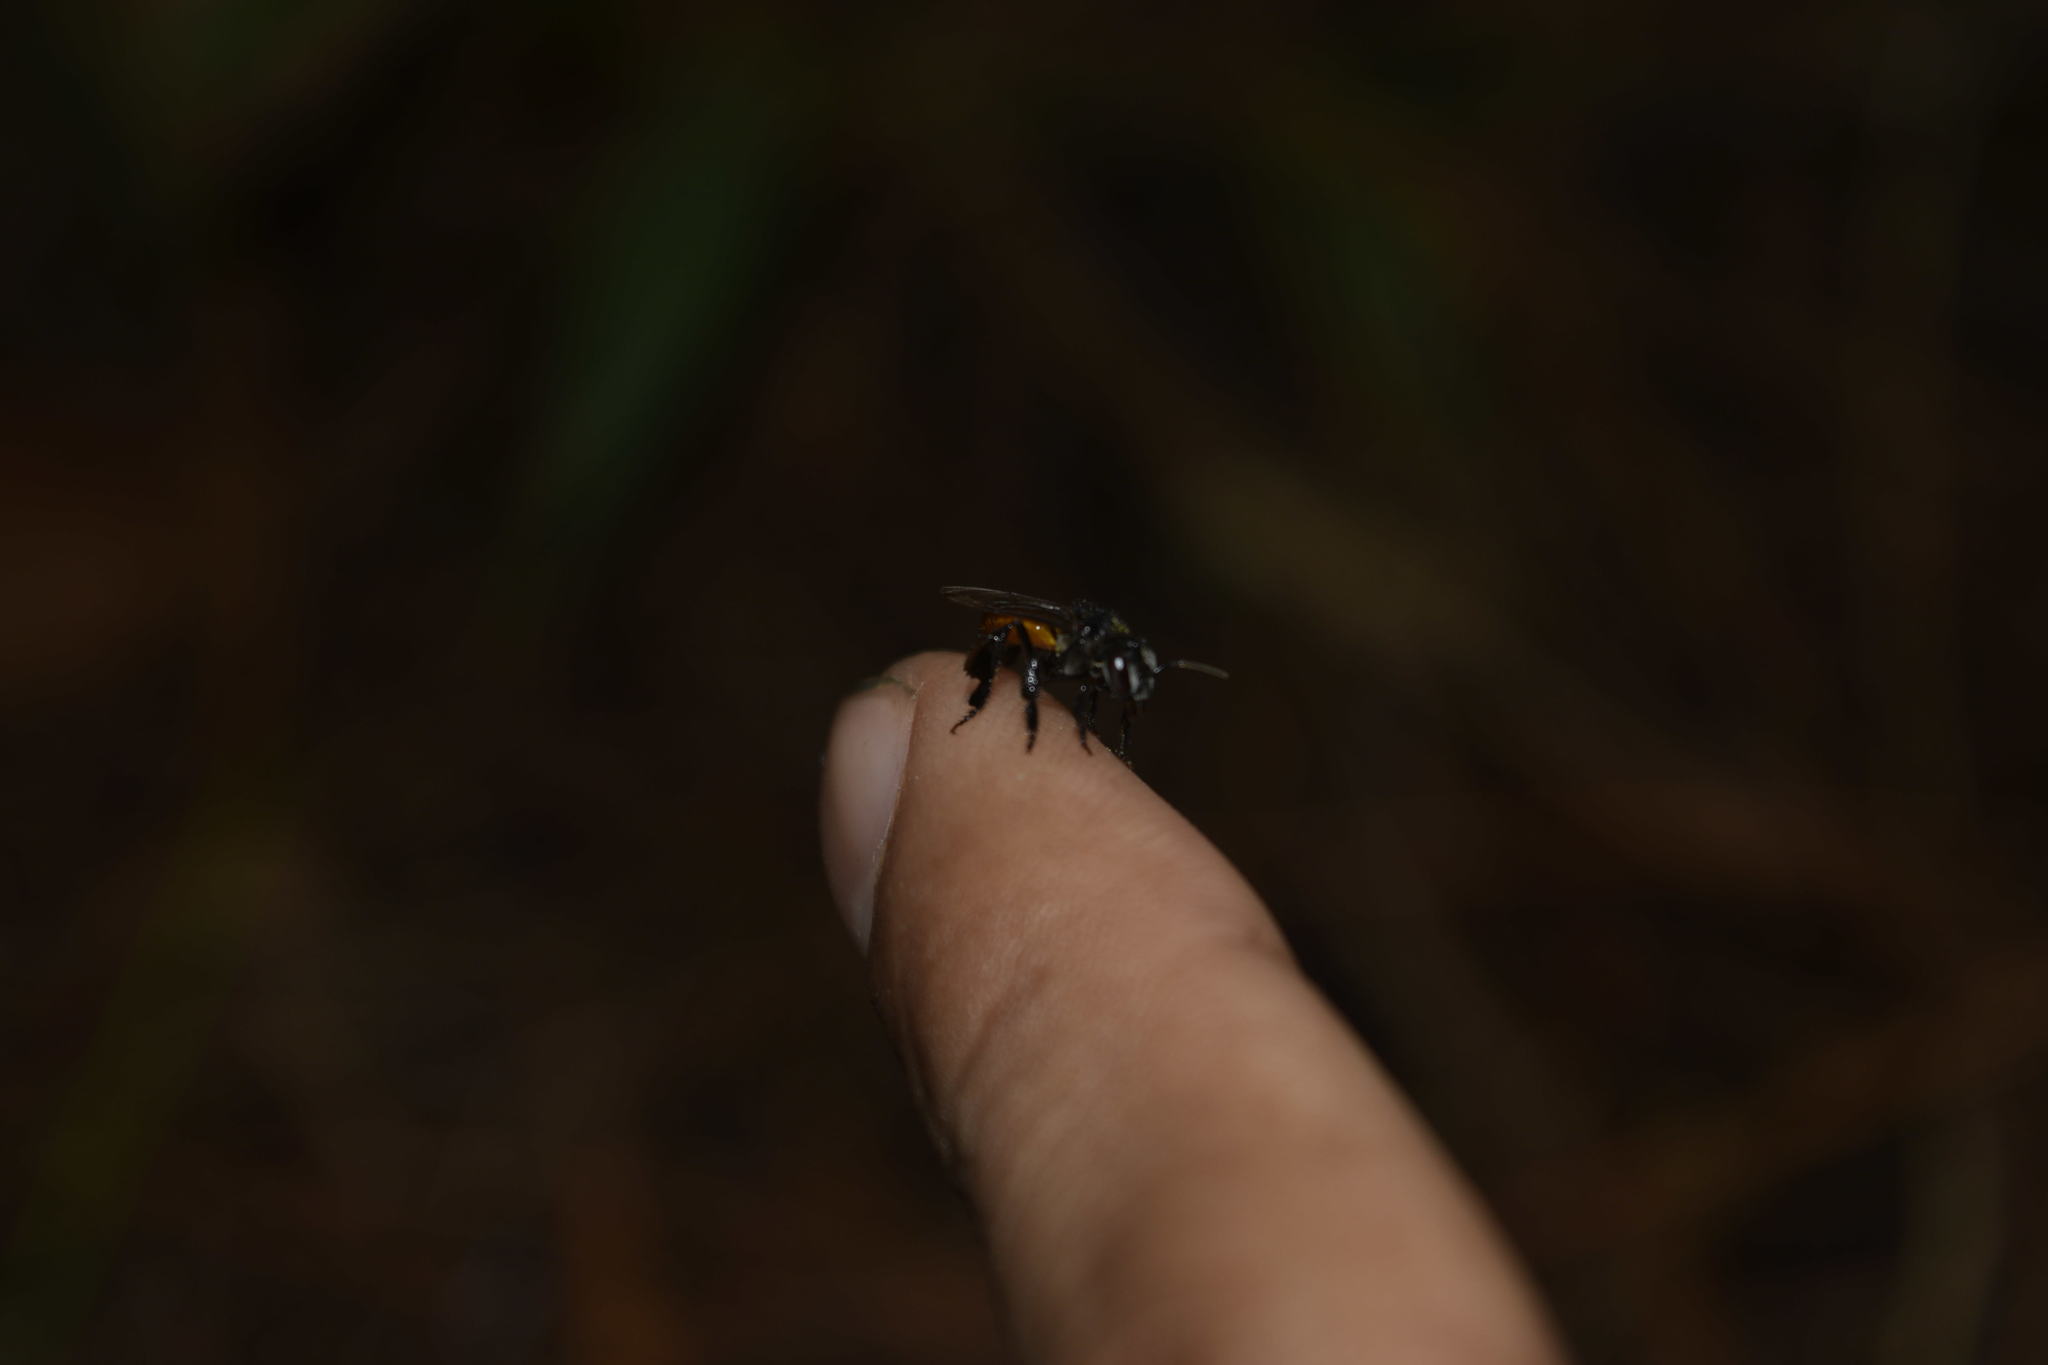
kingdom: Animalia
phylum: Arthropoda
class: Insecta
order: Hymenoptera
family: Apidae
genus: Trigona
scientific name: Trigona fulviventris
